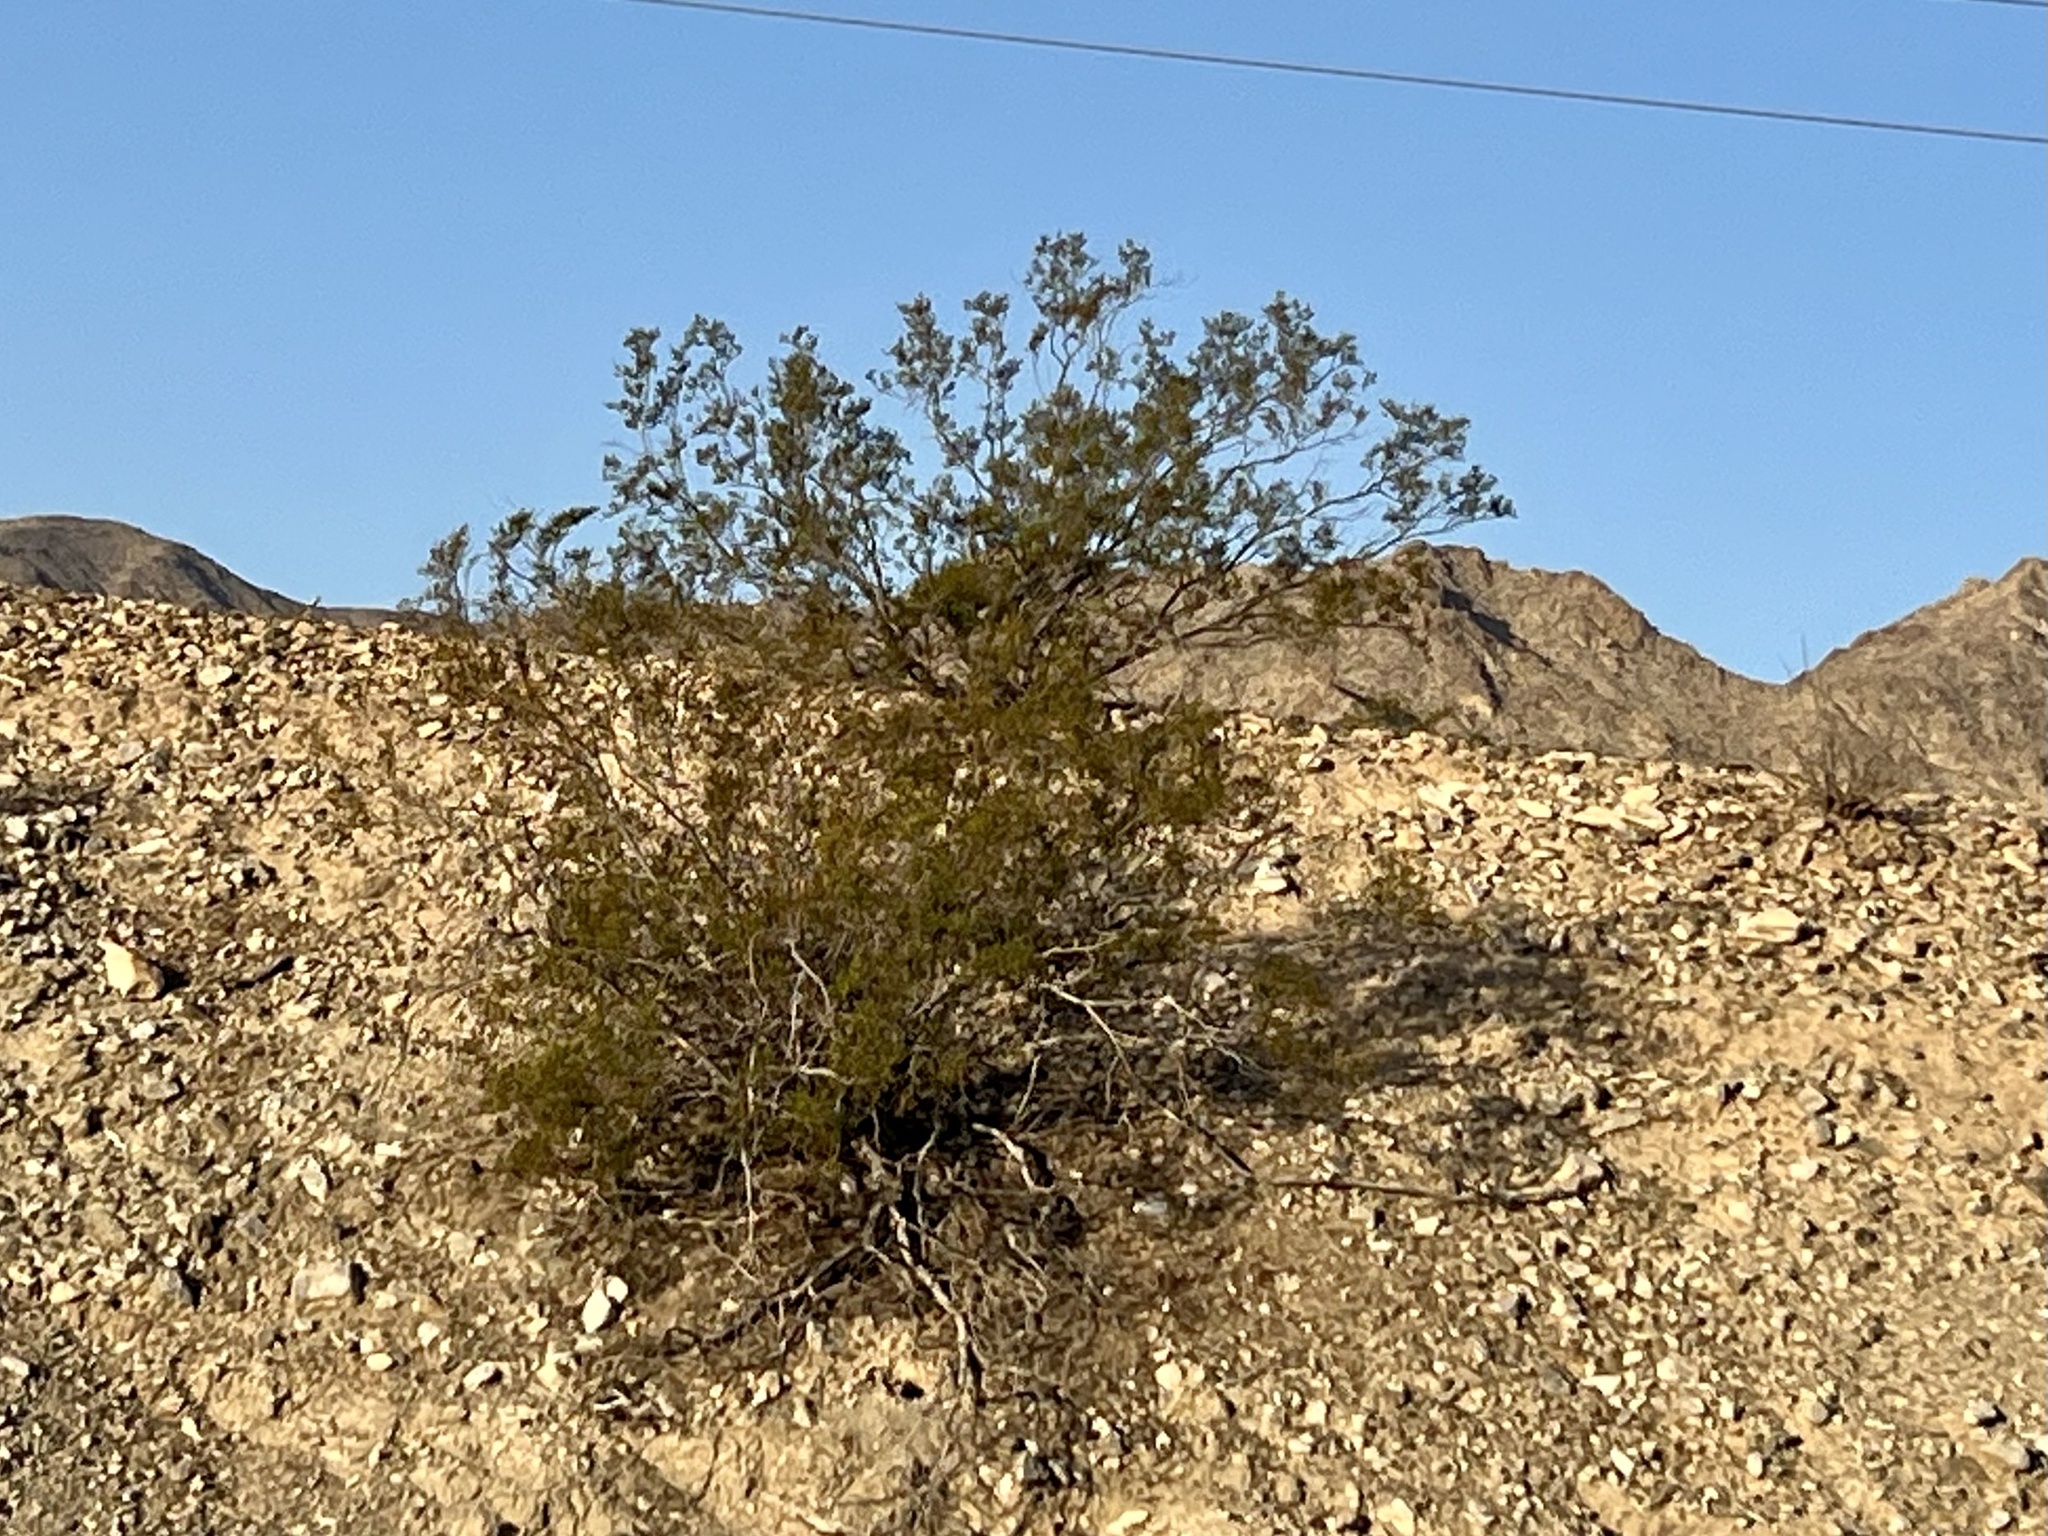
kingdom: Plantae
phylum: Tracheophyta
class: Magnoliopsida
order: Zygophyllales
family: Zygophyllaceae
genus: Larrea
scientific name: Larrea tridentata
